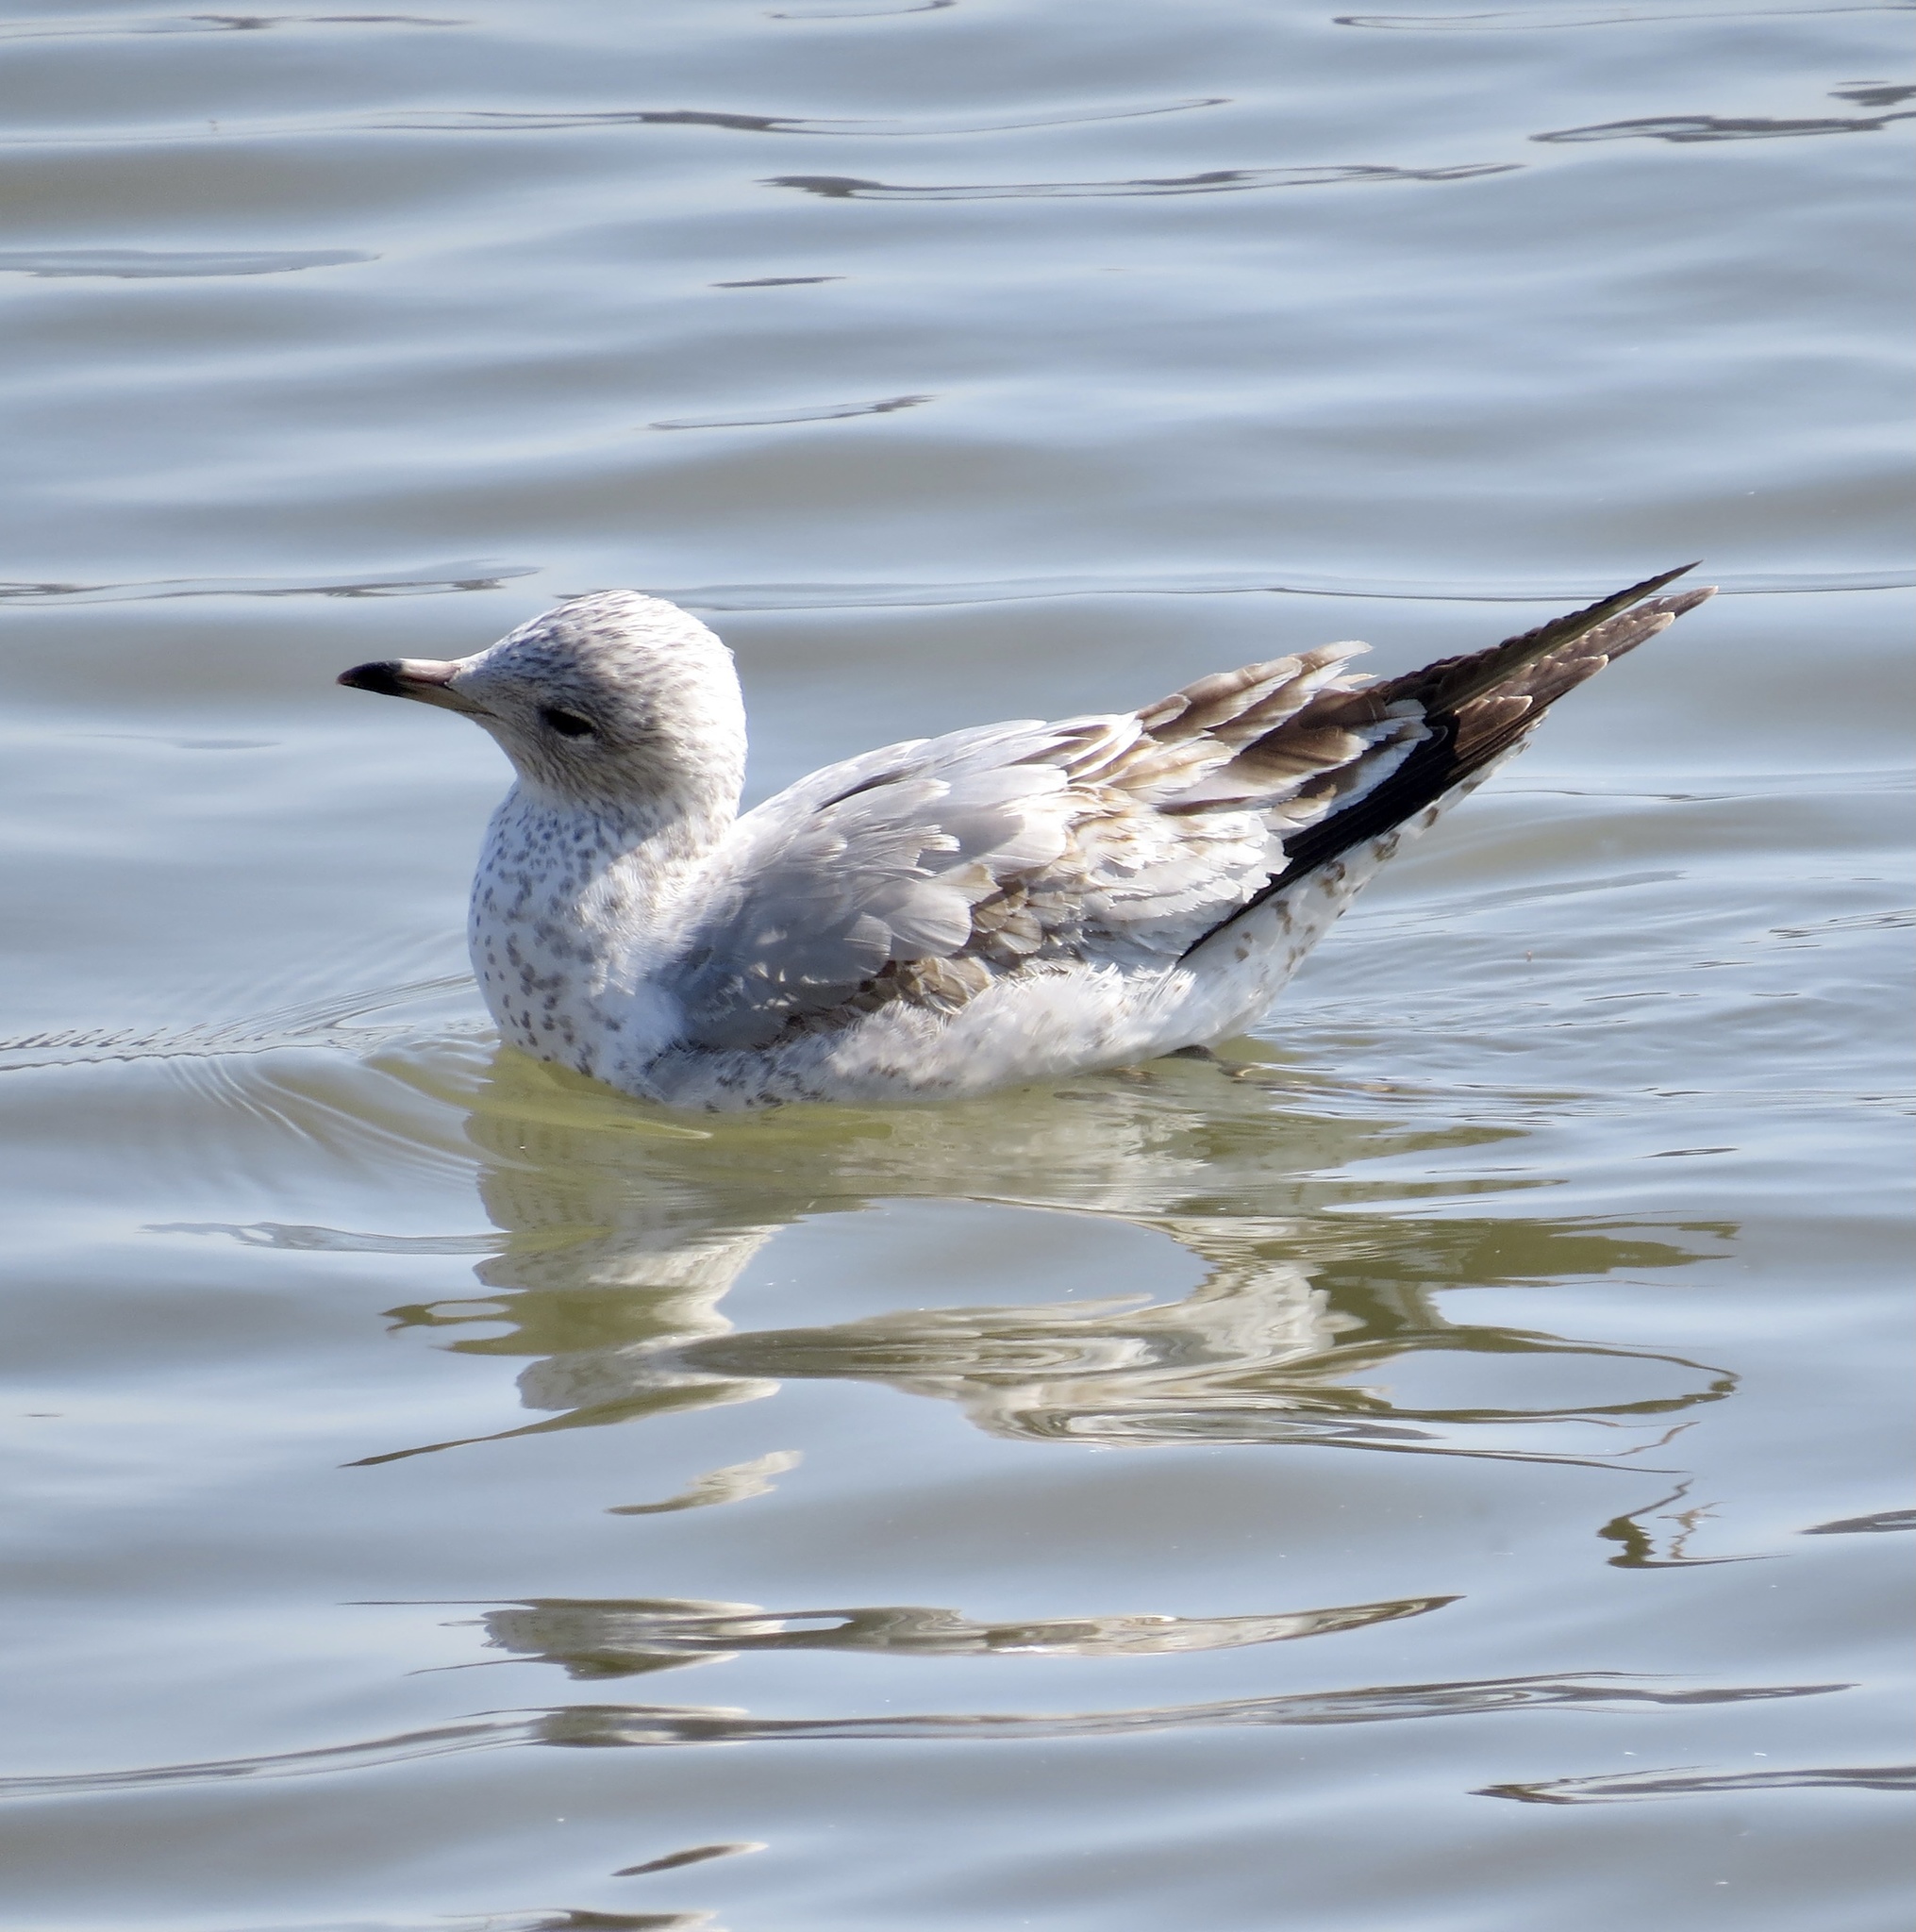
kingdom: Animalia
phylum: Chordata
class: Aves
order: Charadriiformes
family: Laridae
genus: Larus
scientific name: Larus delawarensis
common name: Ring-billed gull
